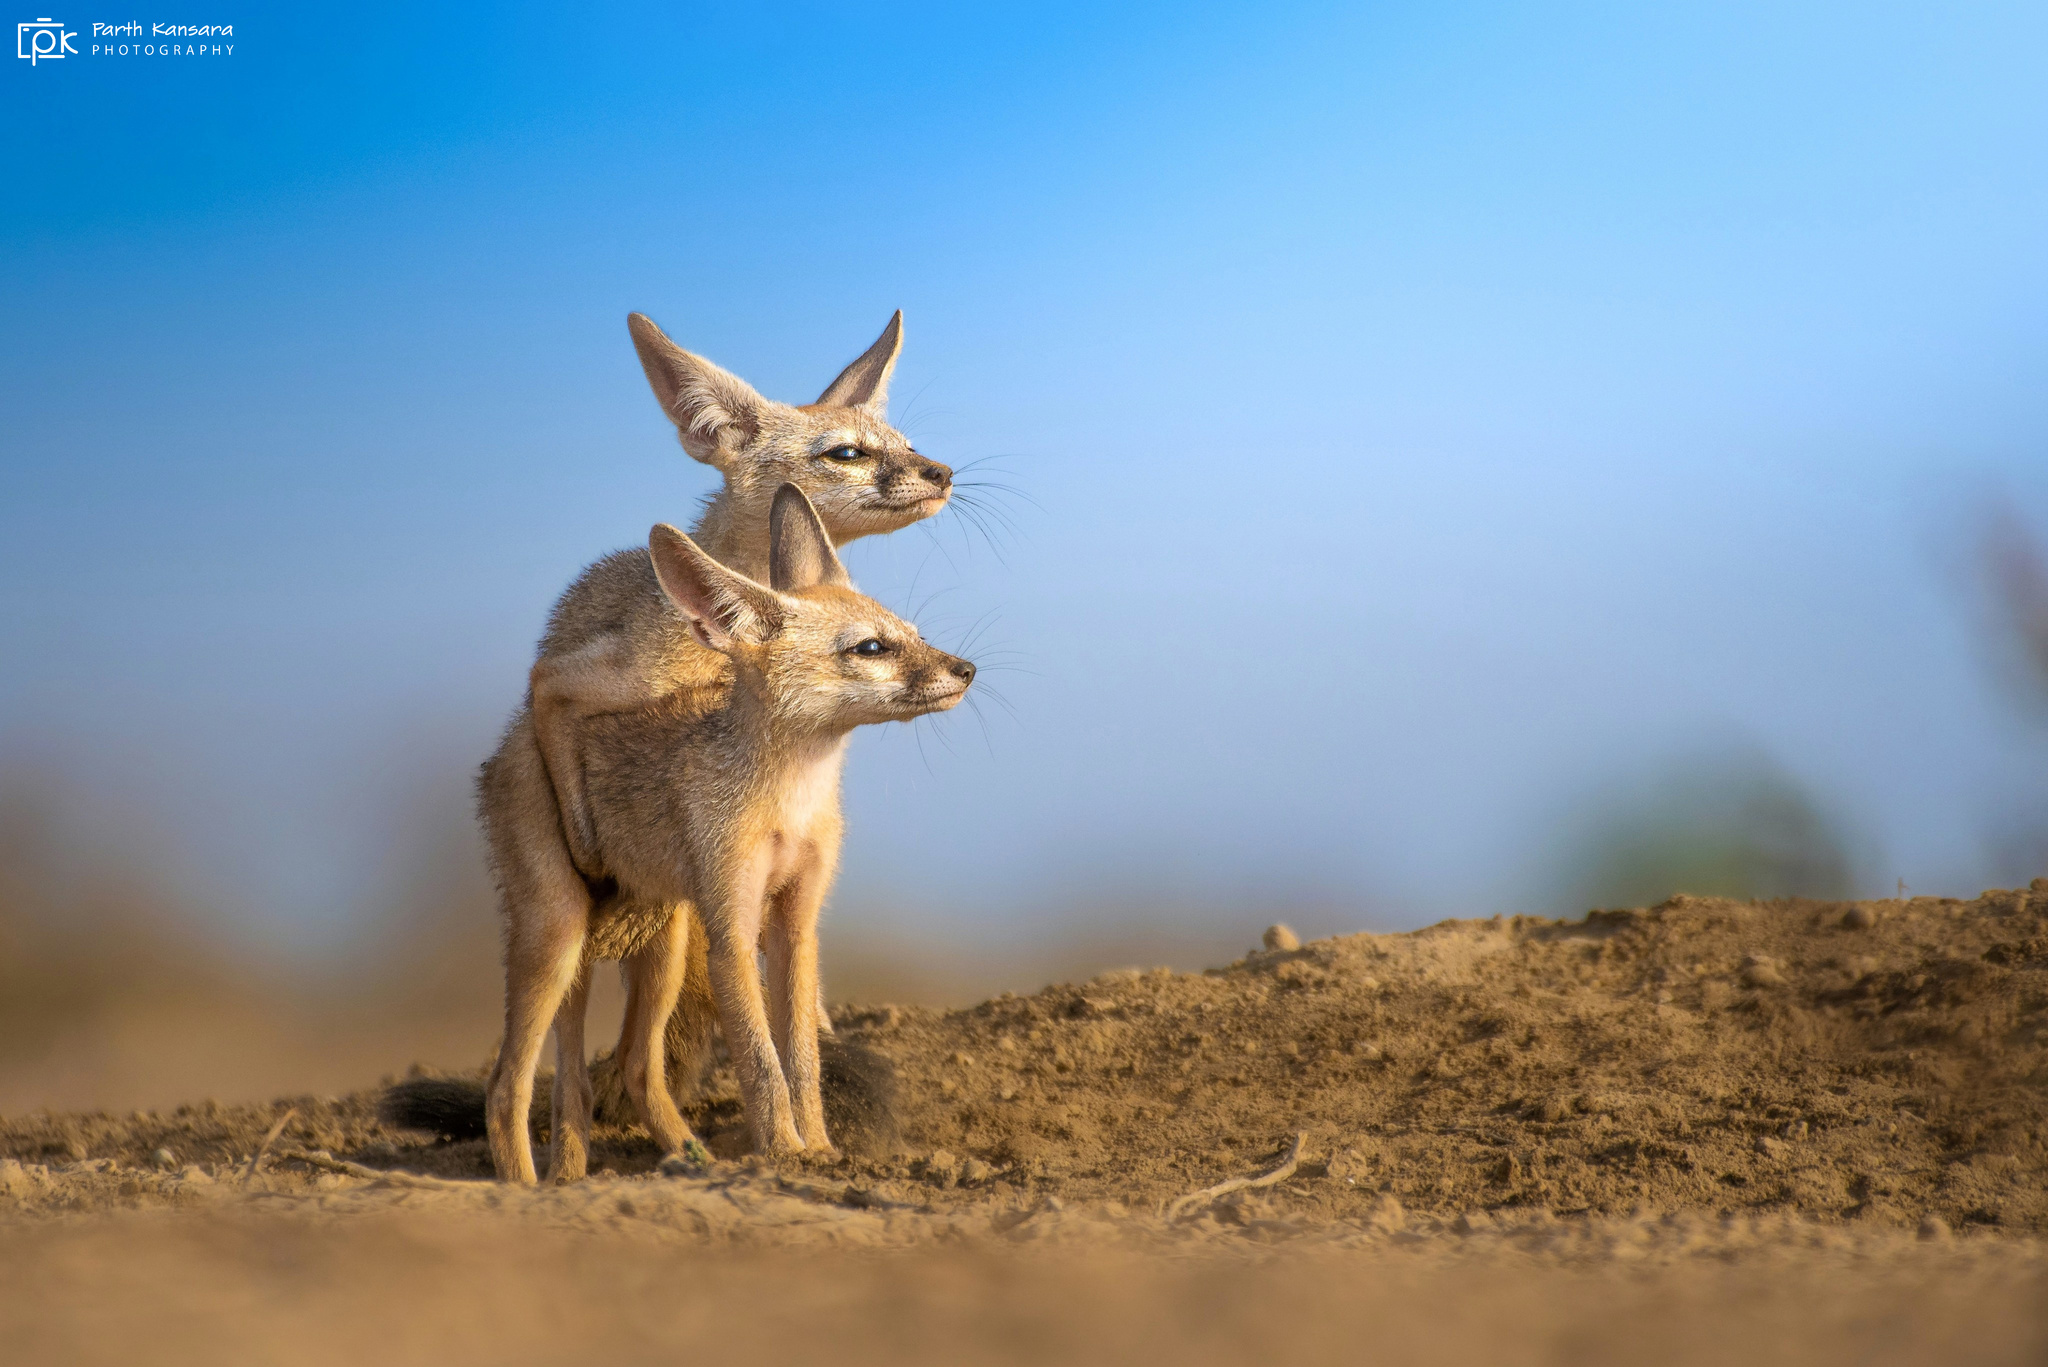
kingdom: Animalia
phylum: Chordata
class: Mammalia
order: Carnivora
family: Canidae
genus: Vulpes
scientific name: Vulpes bengalensis
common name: Bengal fox
